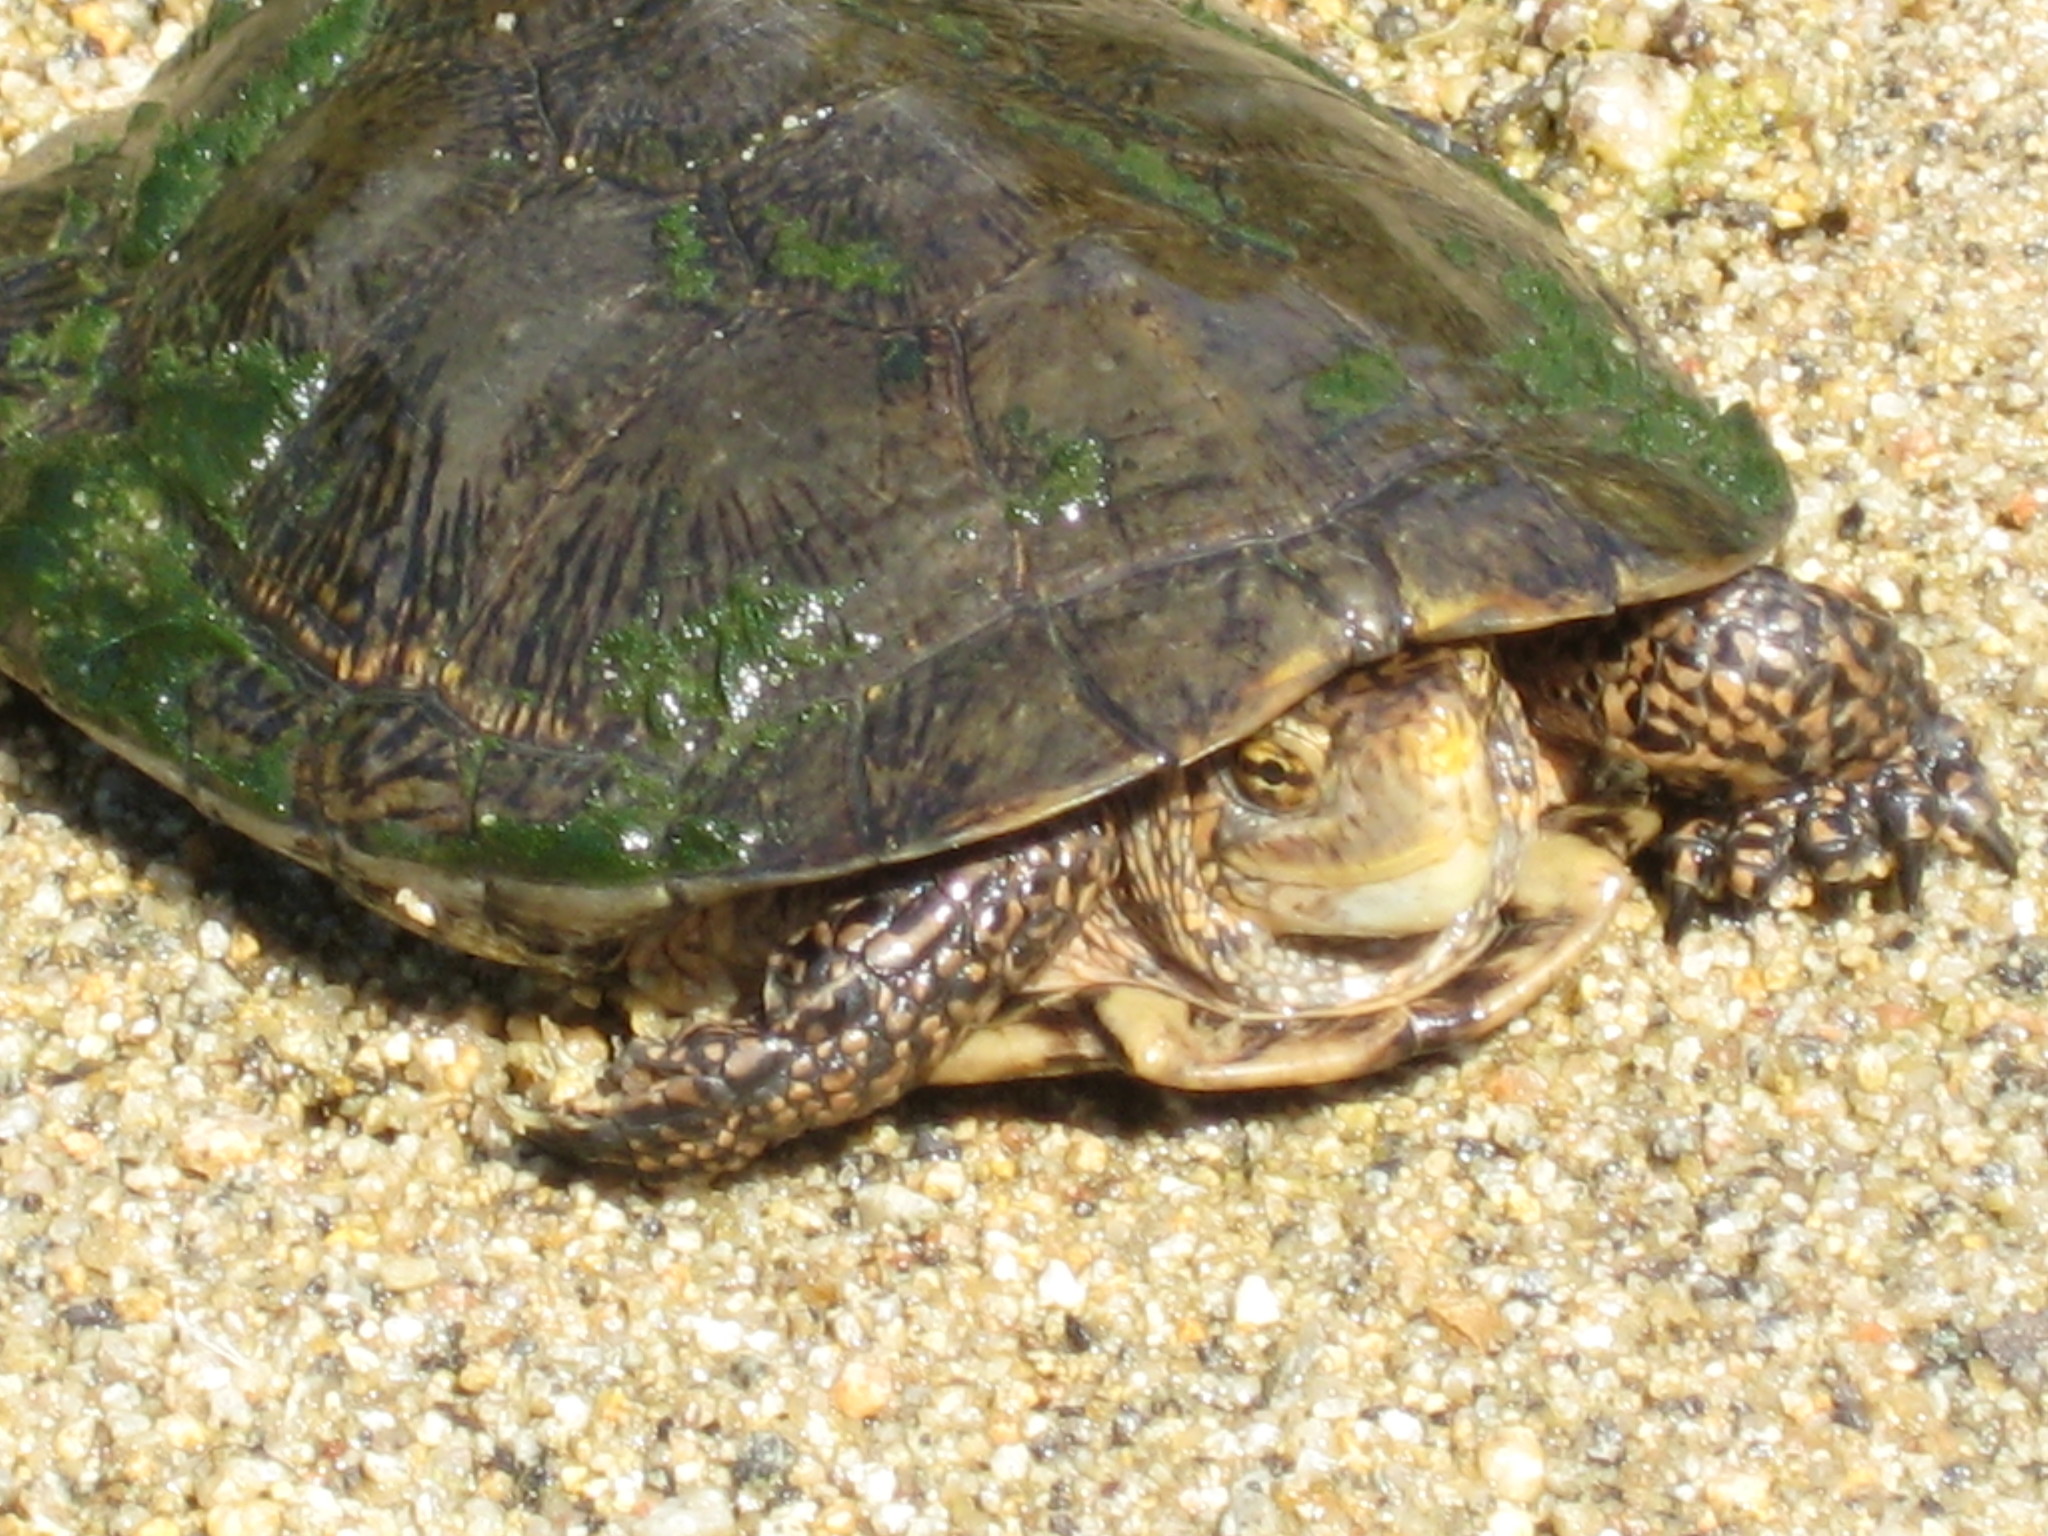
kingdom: Animalia
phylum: Chordata
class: Testudines
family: Emydidae
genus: Actinemys
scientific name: Actinemys marmorata
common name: Western pond turtle
